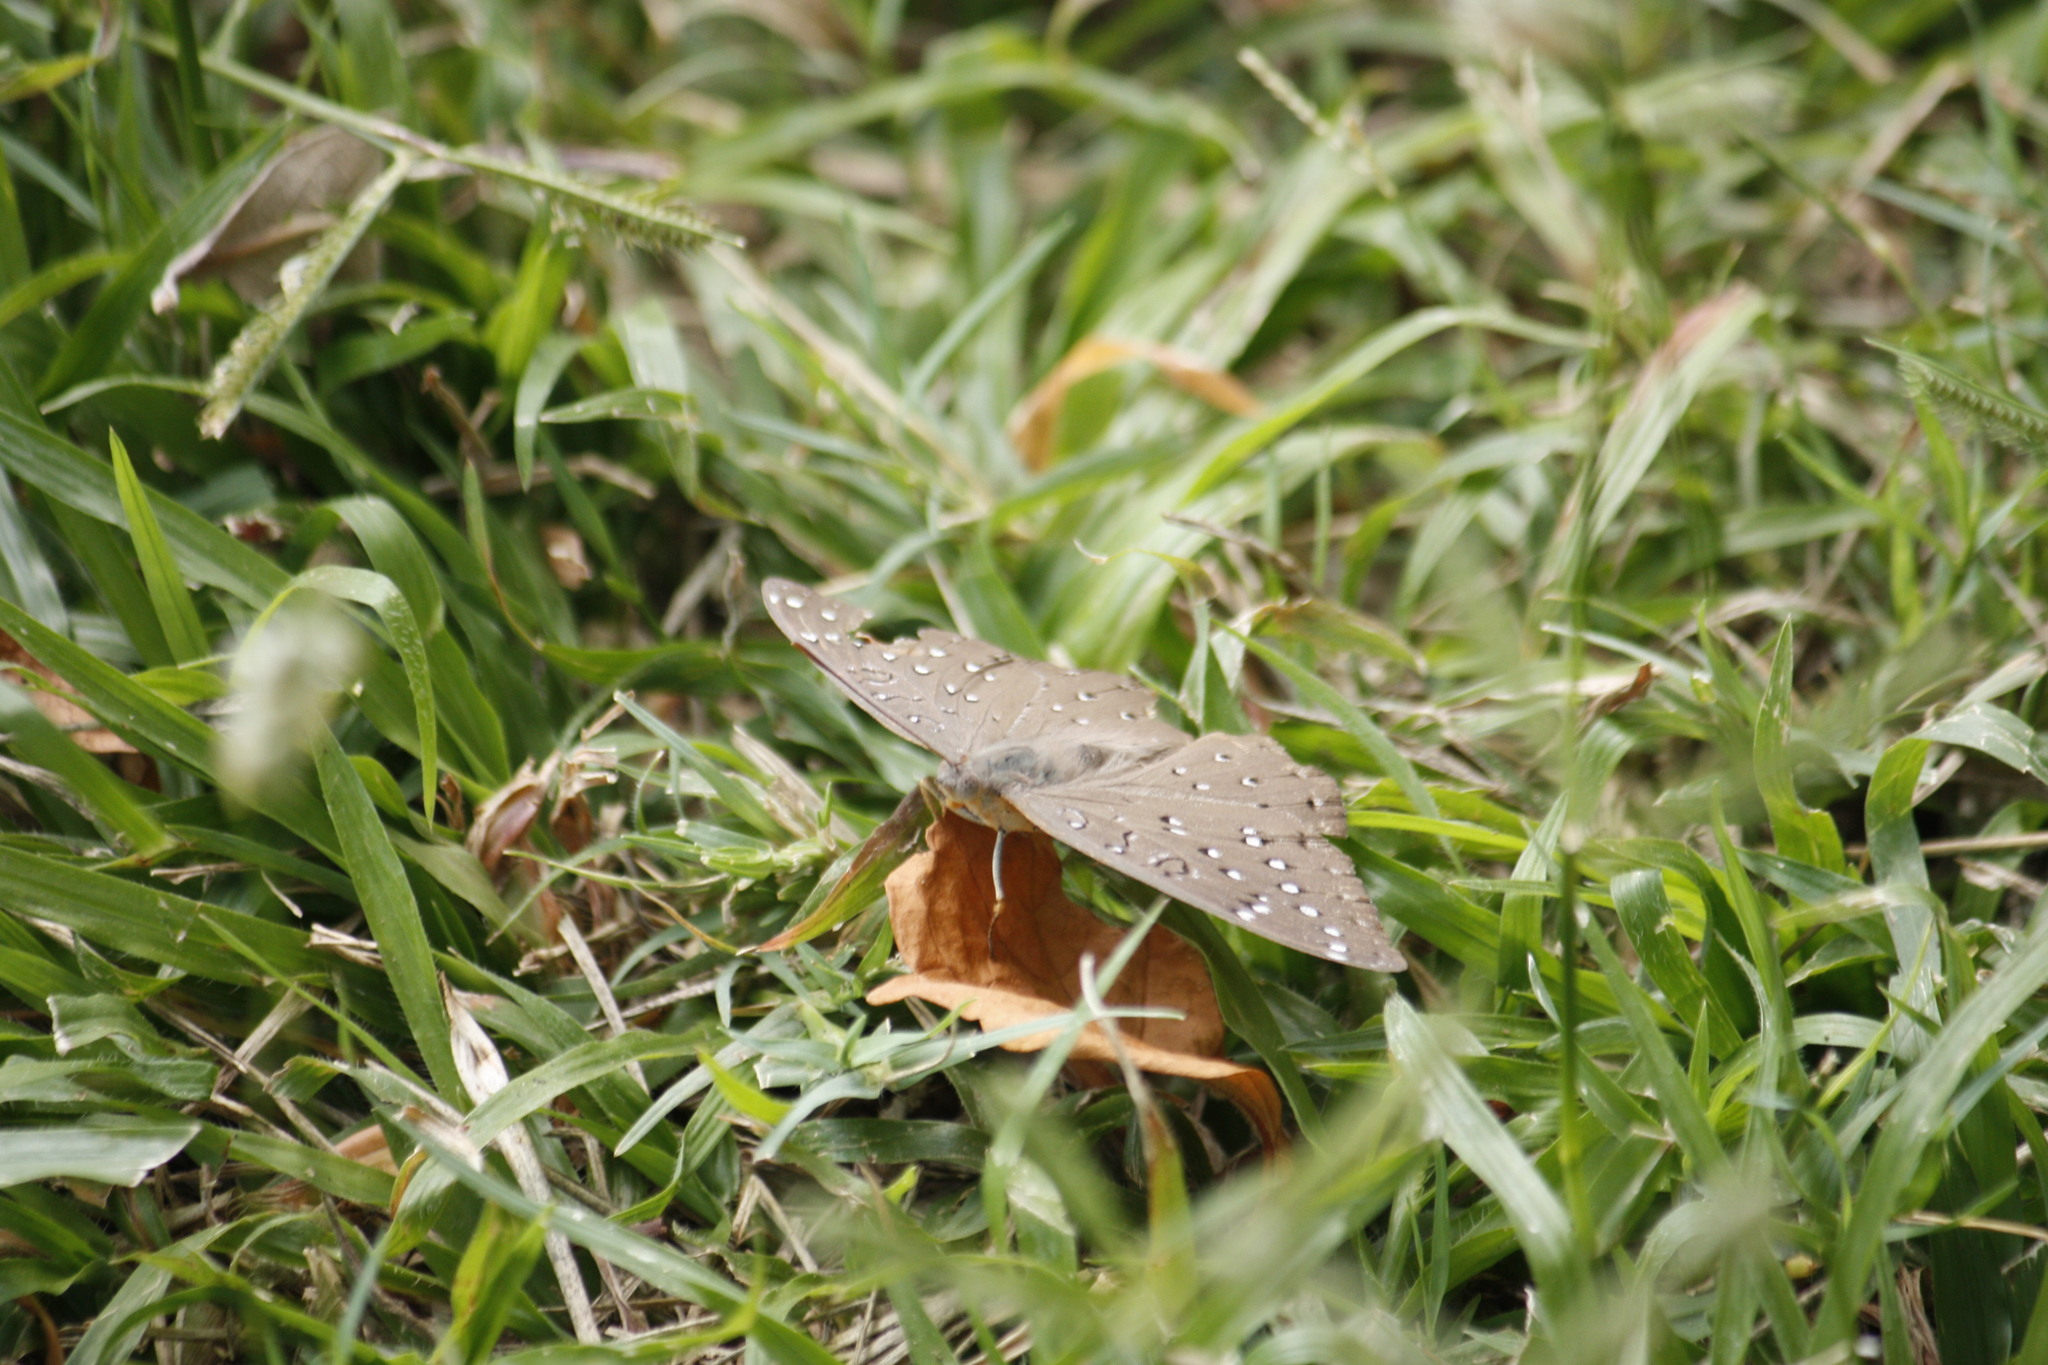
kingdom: Animalia
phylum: Arthropoda
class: Insecta
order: Lepidoptera
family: Nymphalidae
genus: Hamanumida
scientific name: Hamanumida daedalus
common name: Guinea-fowl butterfly
